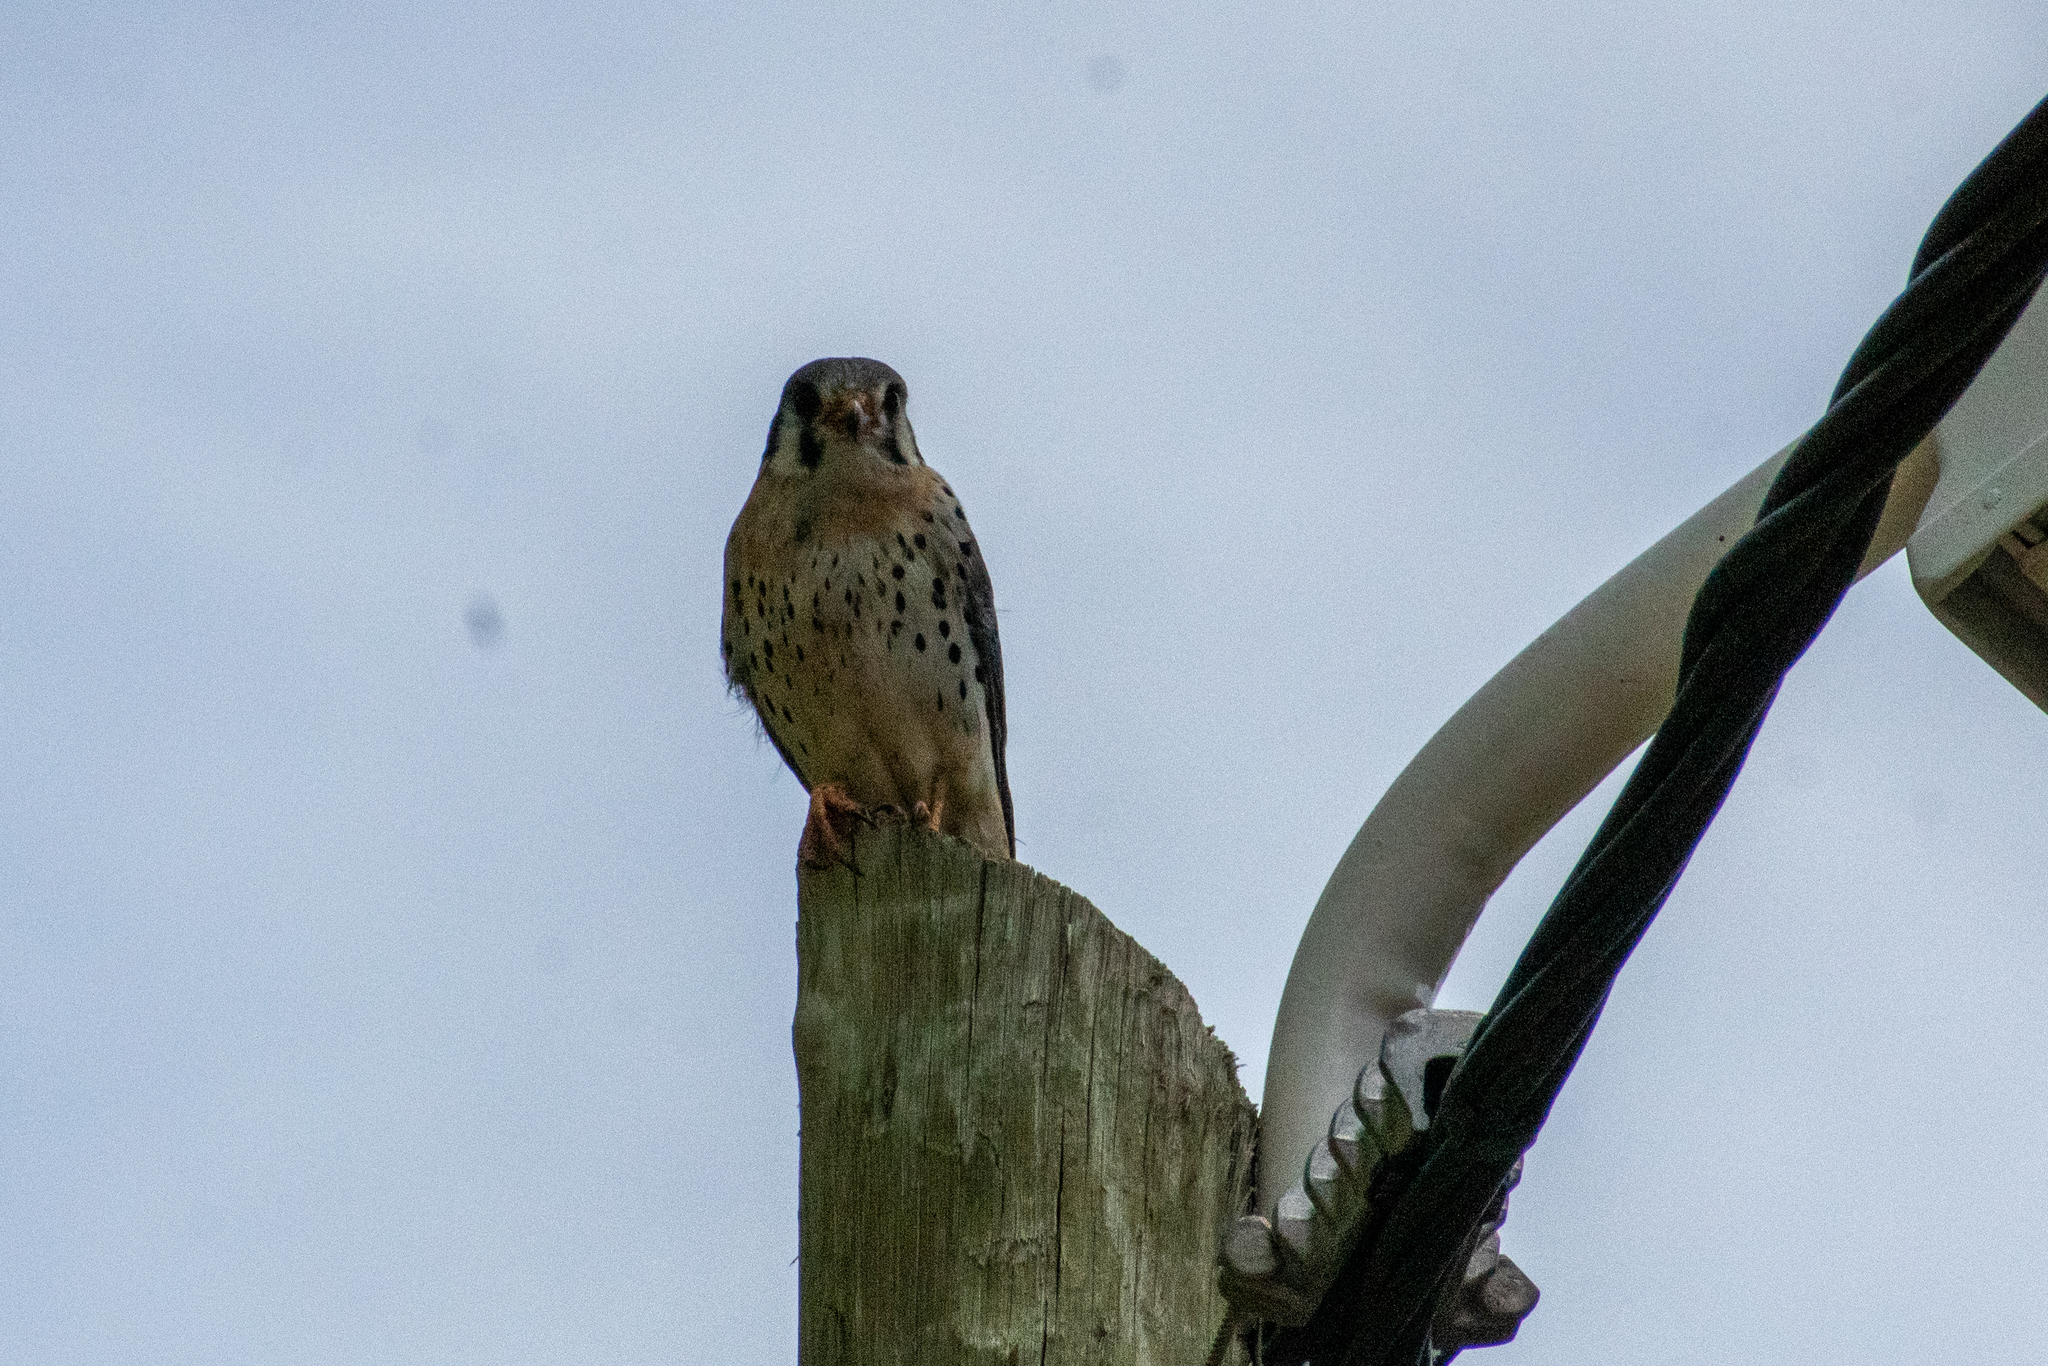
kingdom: Animalia
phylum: Chordata
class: Aves
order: Falconiformes
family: Falconidae
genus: Falco
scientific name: Falco sparverius
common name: American kestrel
